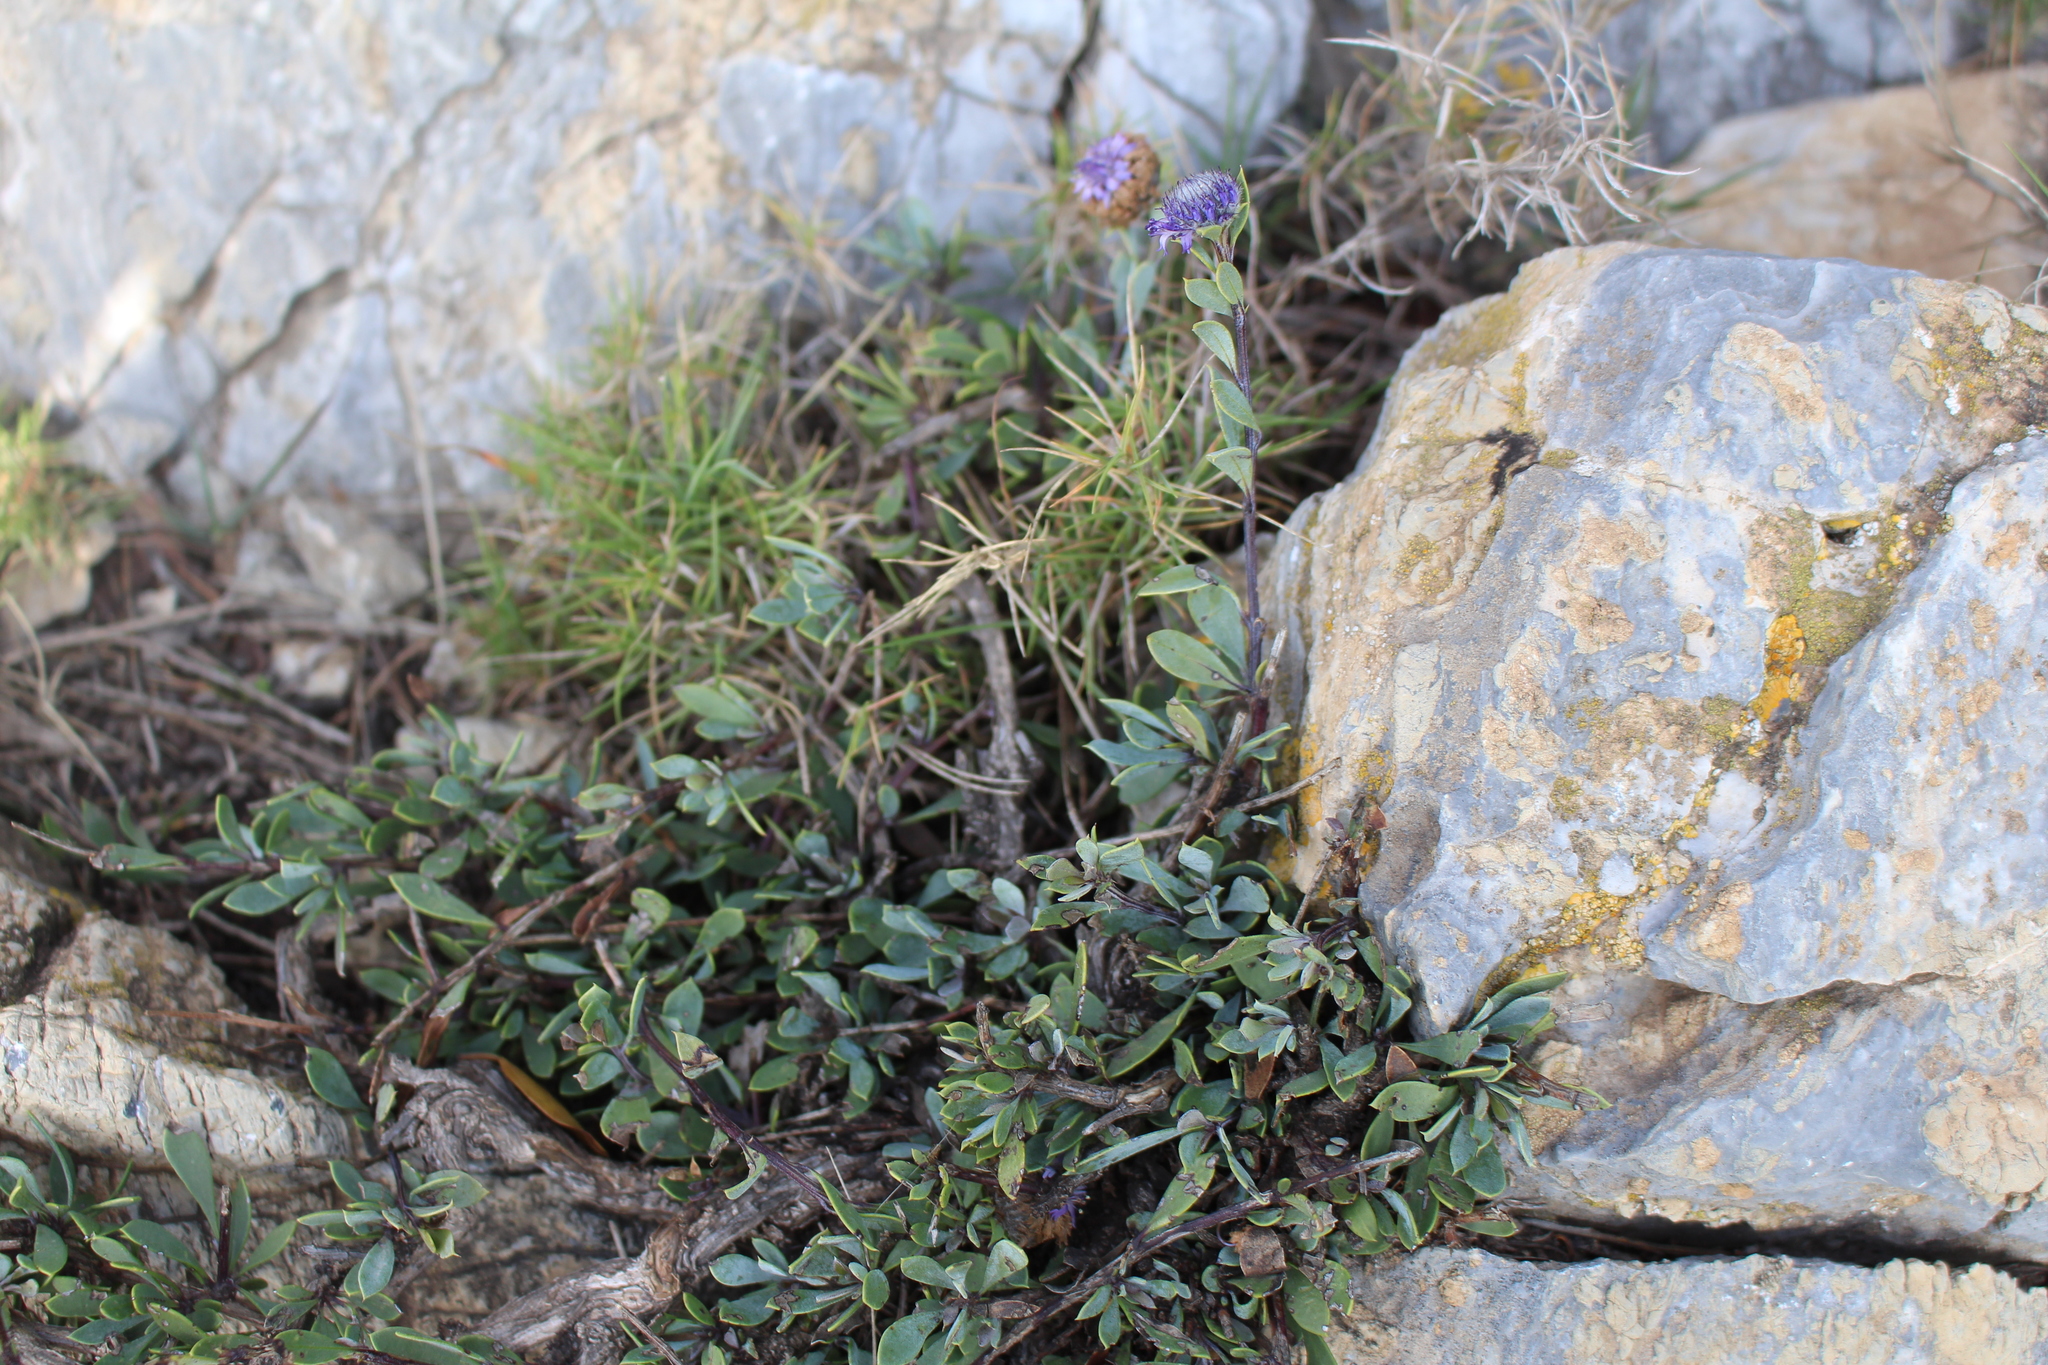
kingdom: Plantae
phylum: Tracheophyta
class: Magnoliopsida
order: Lamiales
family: Plantaginaceae
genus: Globularia
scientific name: Globularia alypum
